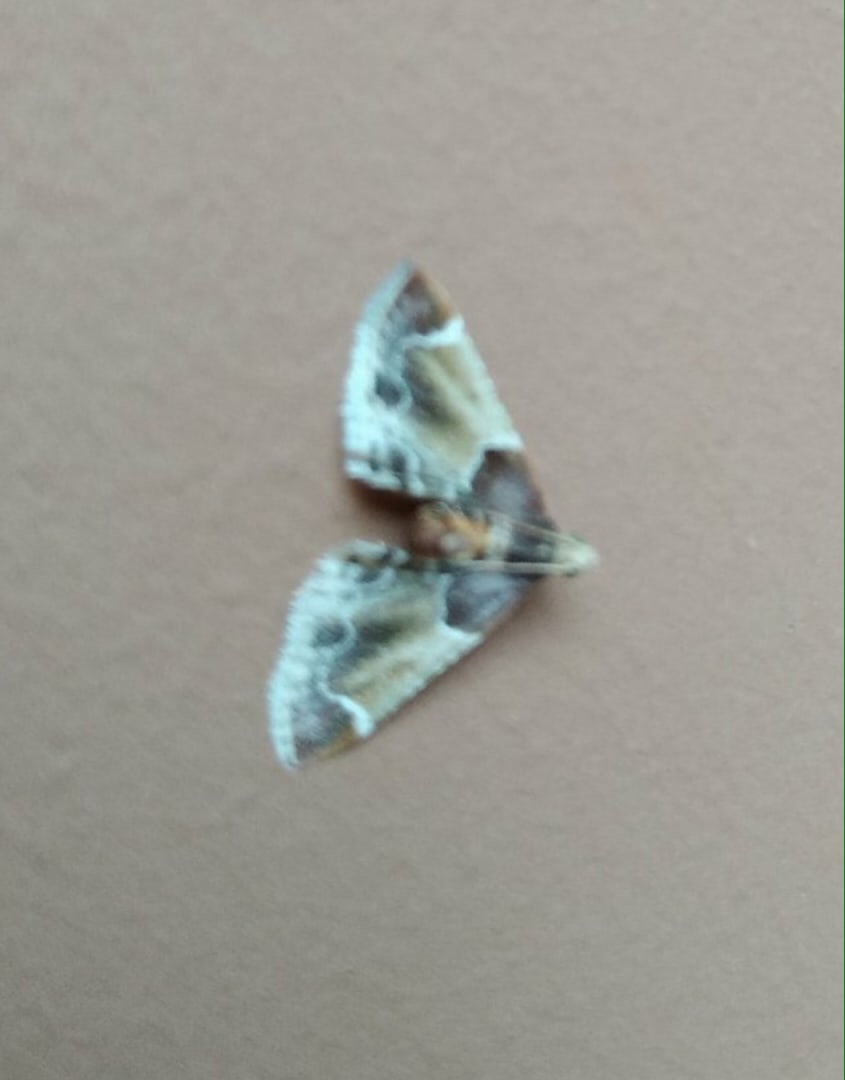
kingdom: Animalia
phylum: Arthropoda
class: Insecta
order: Lepidoptera
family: Pyralidae
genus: Pyralis
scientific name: Pyralis farinalis
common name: Meal moth
